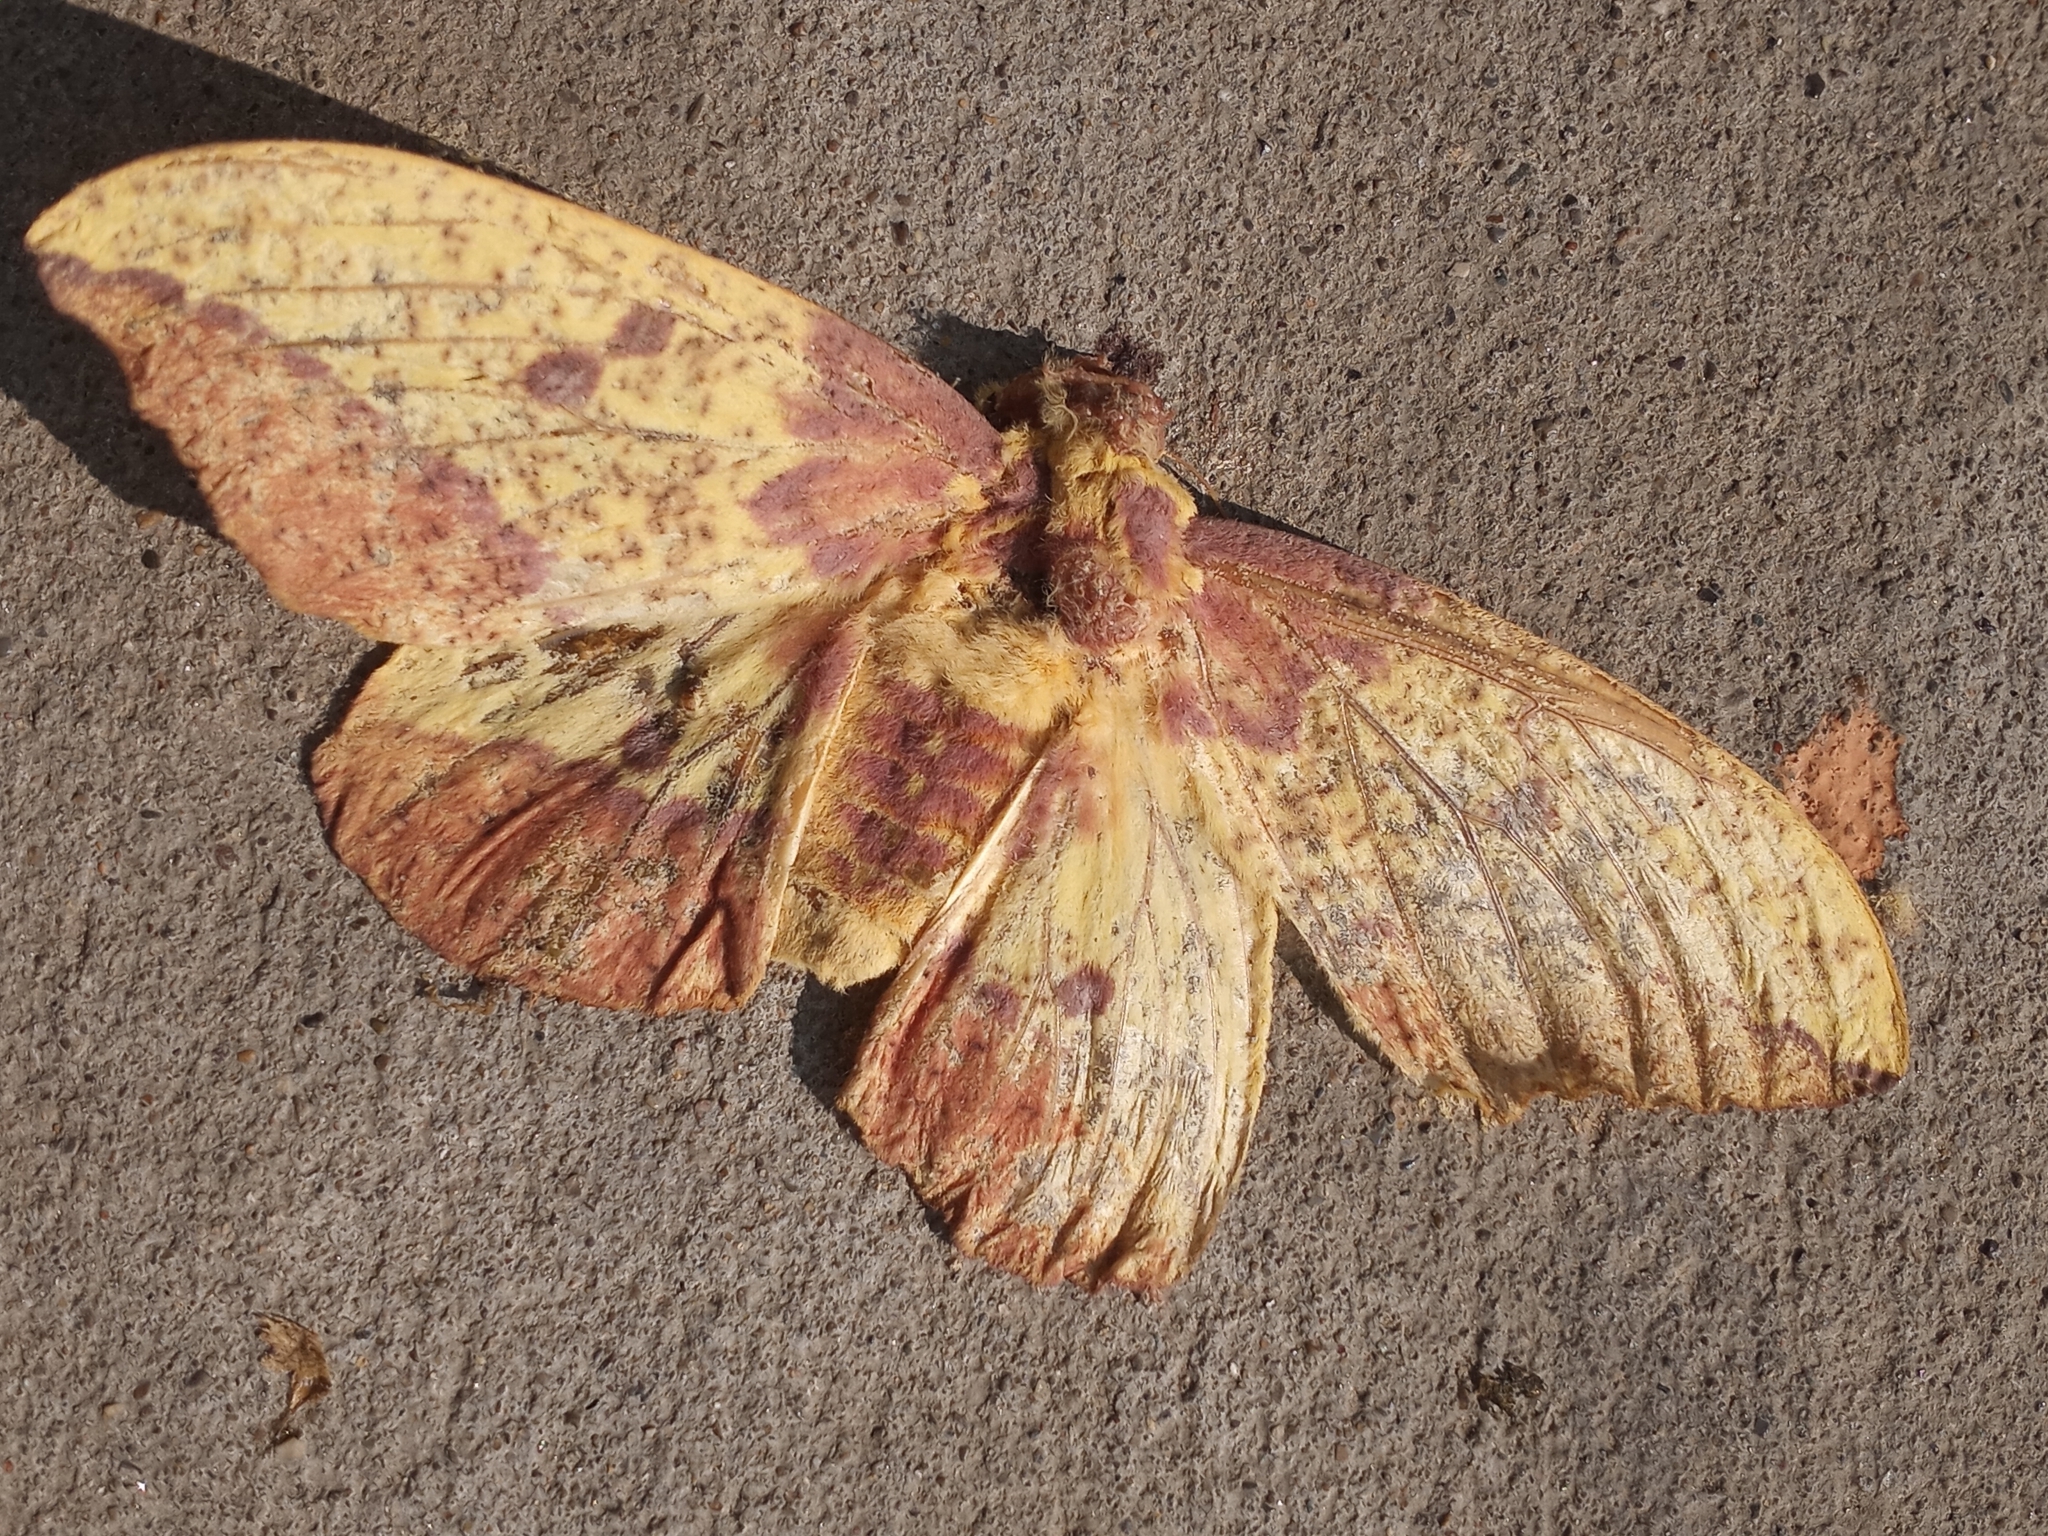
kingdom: Animalia
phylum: Arthropoda
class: Insecta
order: Lepidoptera
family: Saturniidae
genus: Eacles
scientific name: Eacles imperialis
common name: Imperial moth
